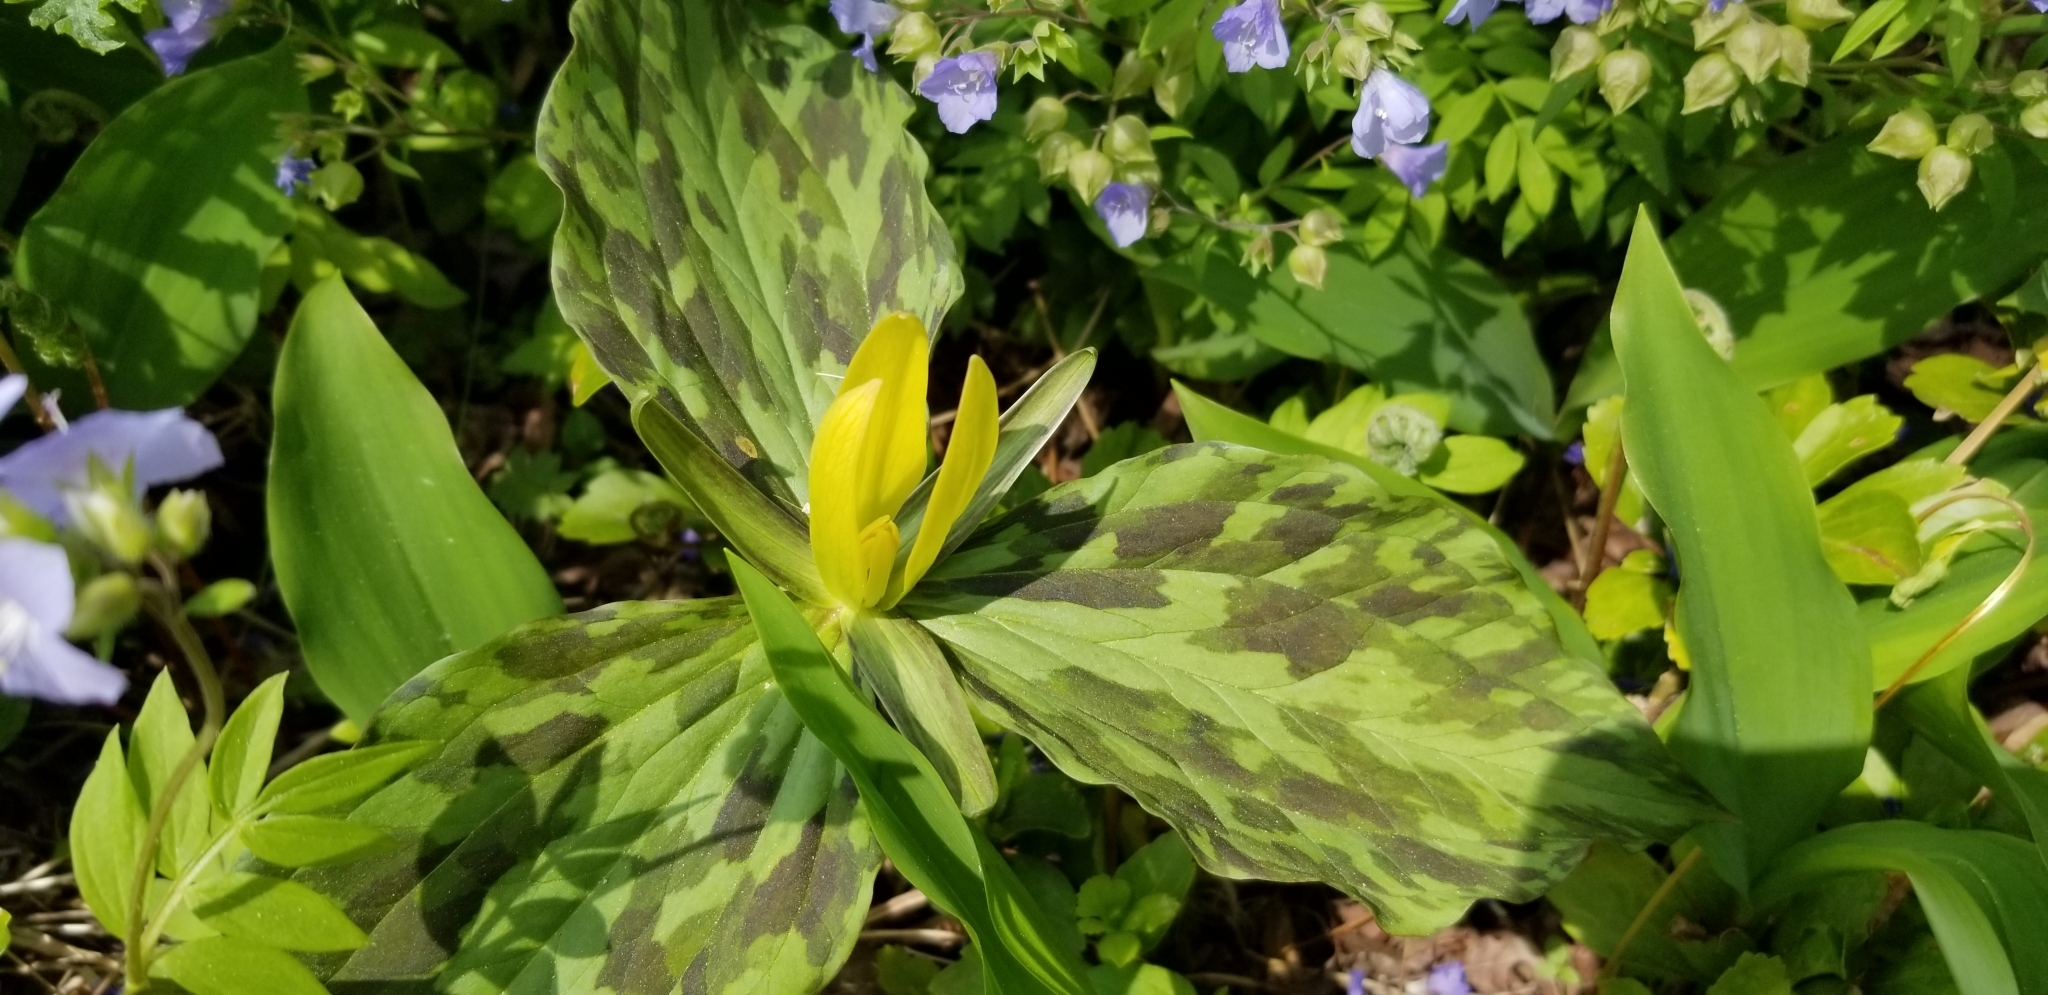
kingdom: Plantae
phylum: Tracheophyta
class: Liliopsida
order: Liliales
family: Melanthiaceae
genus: Trillium
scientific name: Trillium luteum
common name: Wax trillium
